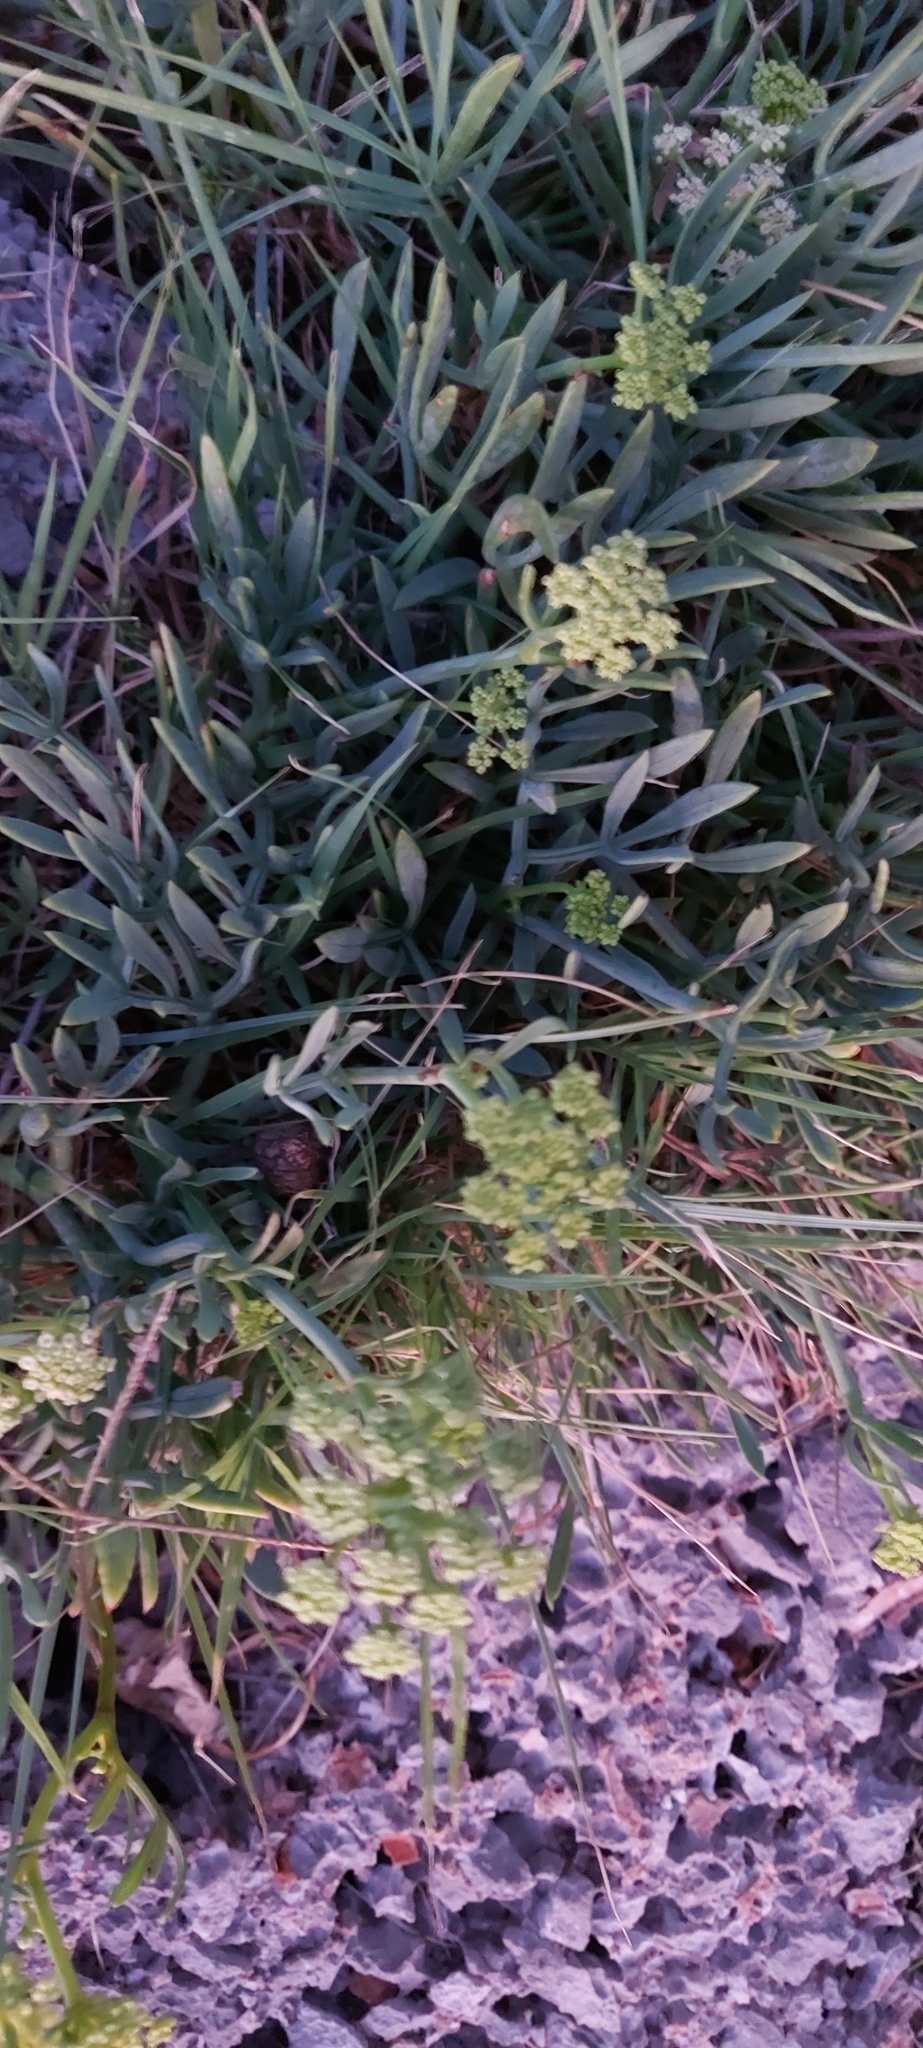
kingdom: Plantae
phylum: Tracheophyta
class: Magnoliopsida
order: Apiales
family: Apiaceae
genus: Crithmum
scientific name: Crithmum maritimum
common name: Rock samphire
